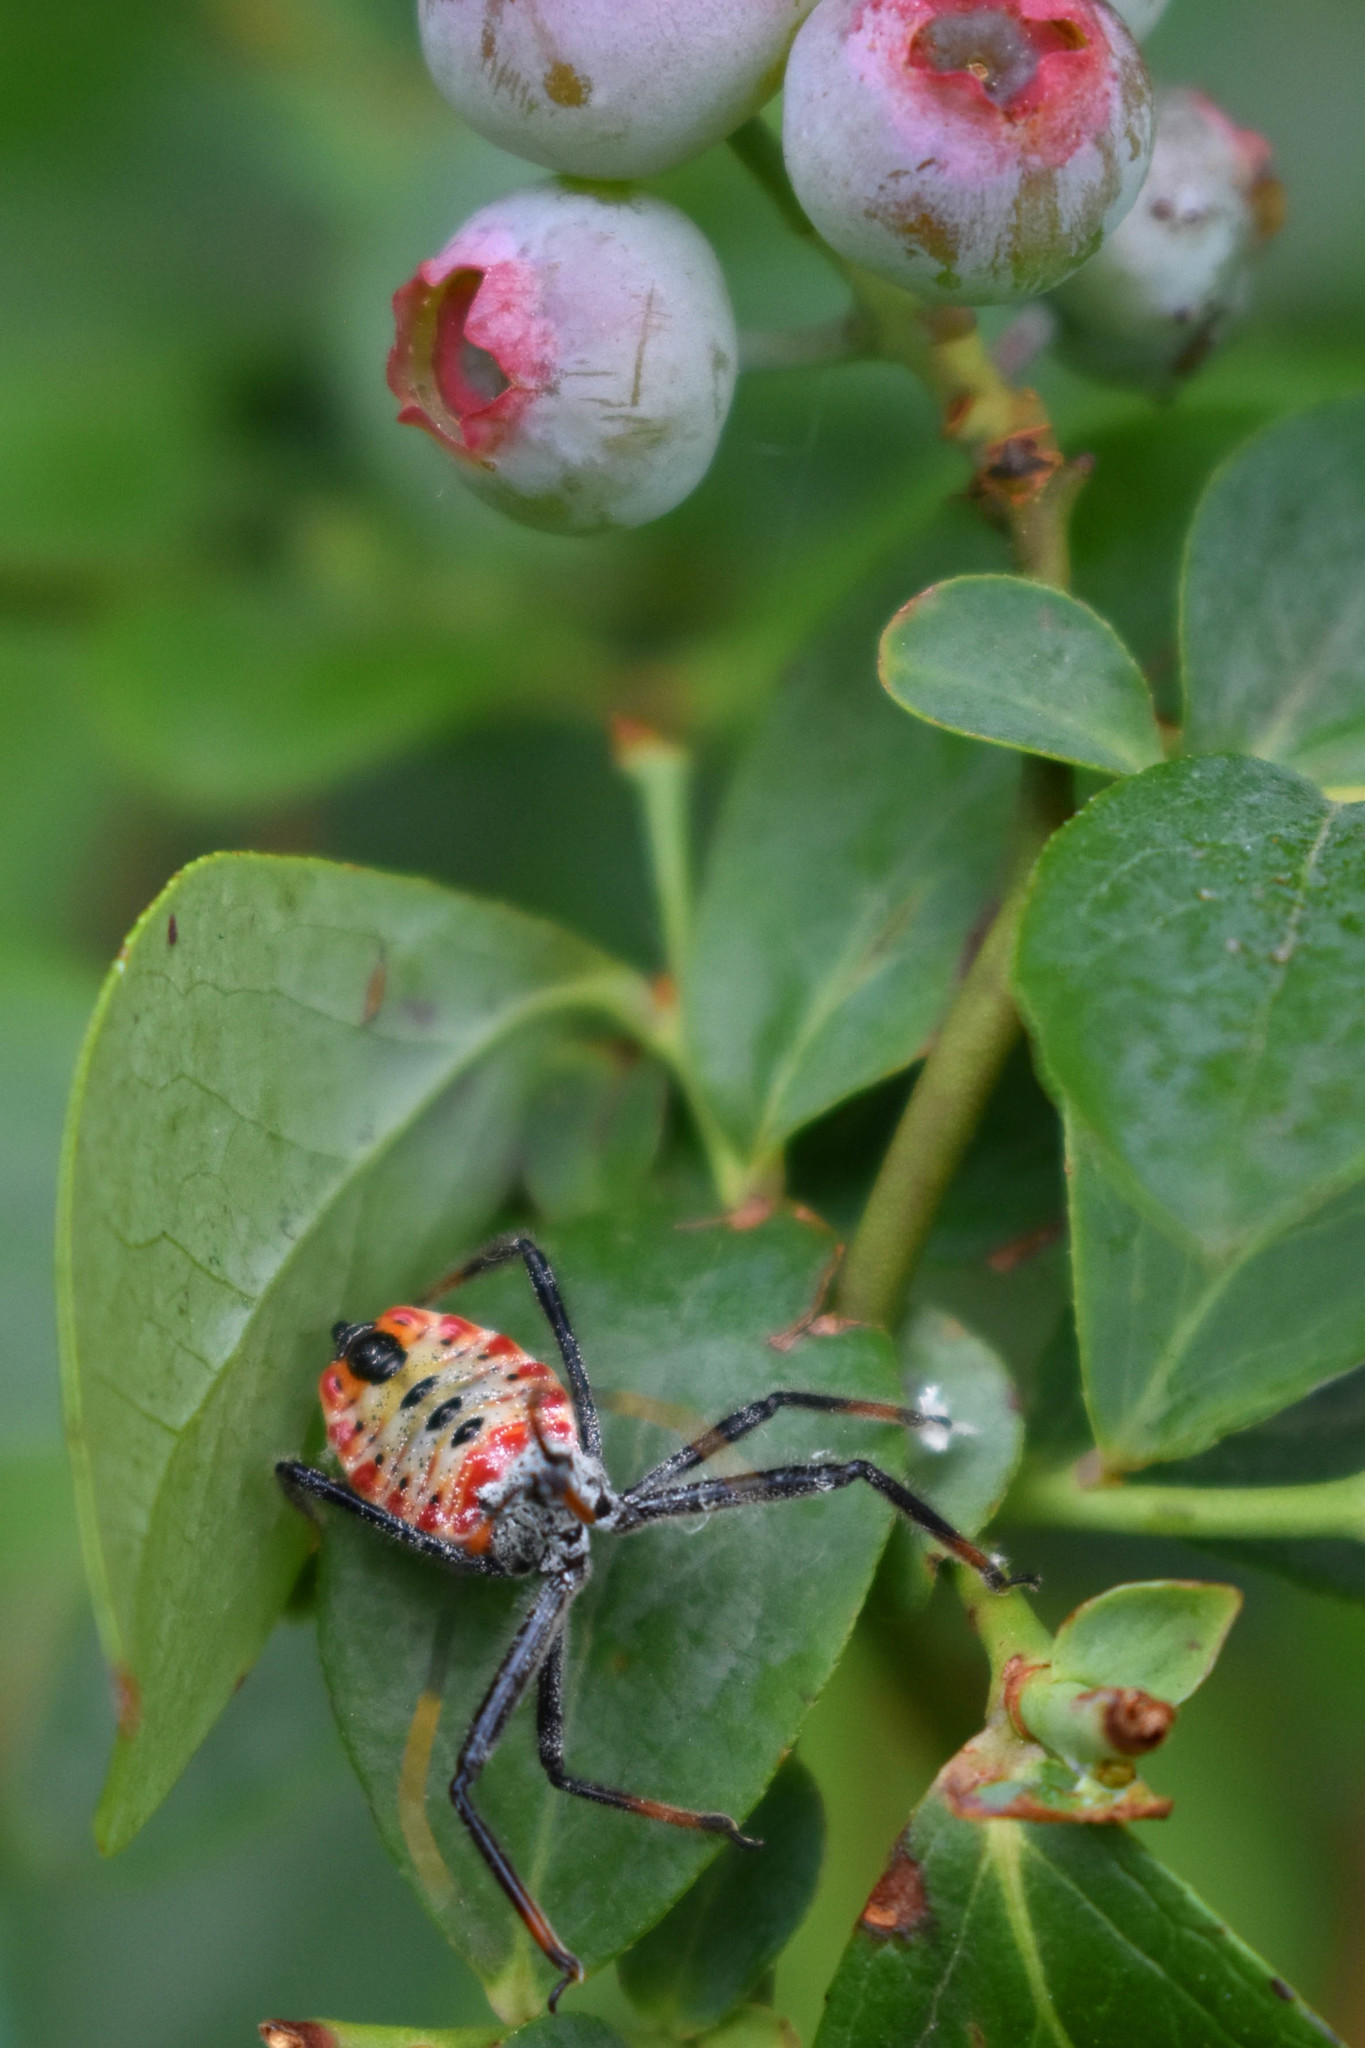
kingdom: Animalia
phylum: Arthropoda
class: Insecta
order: Hemiptera
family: Reduviidae
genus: Arilus
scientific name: Arilus cristatus
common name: North american wheel bug
